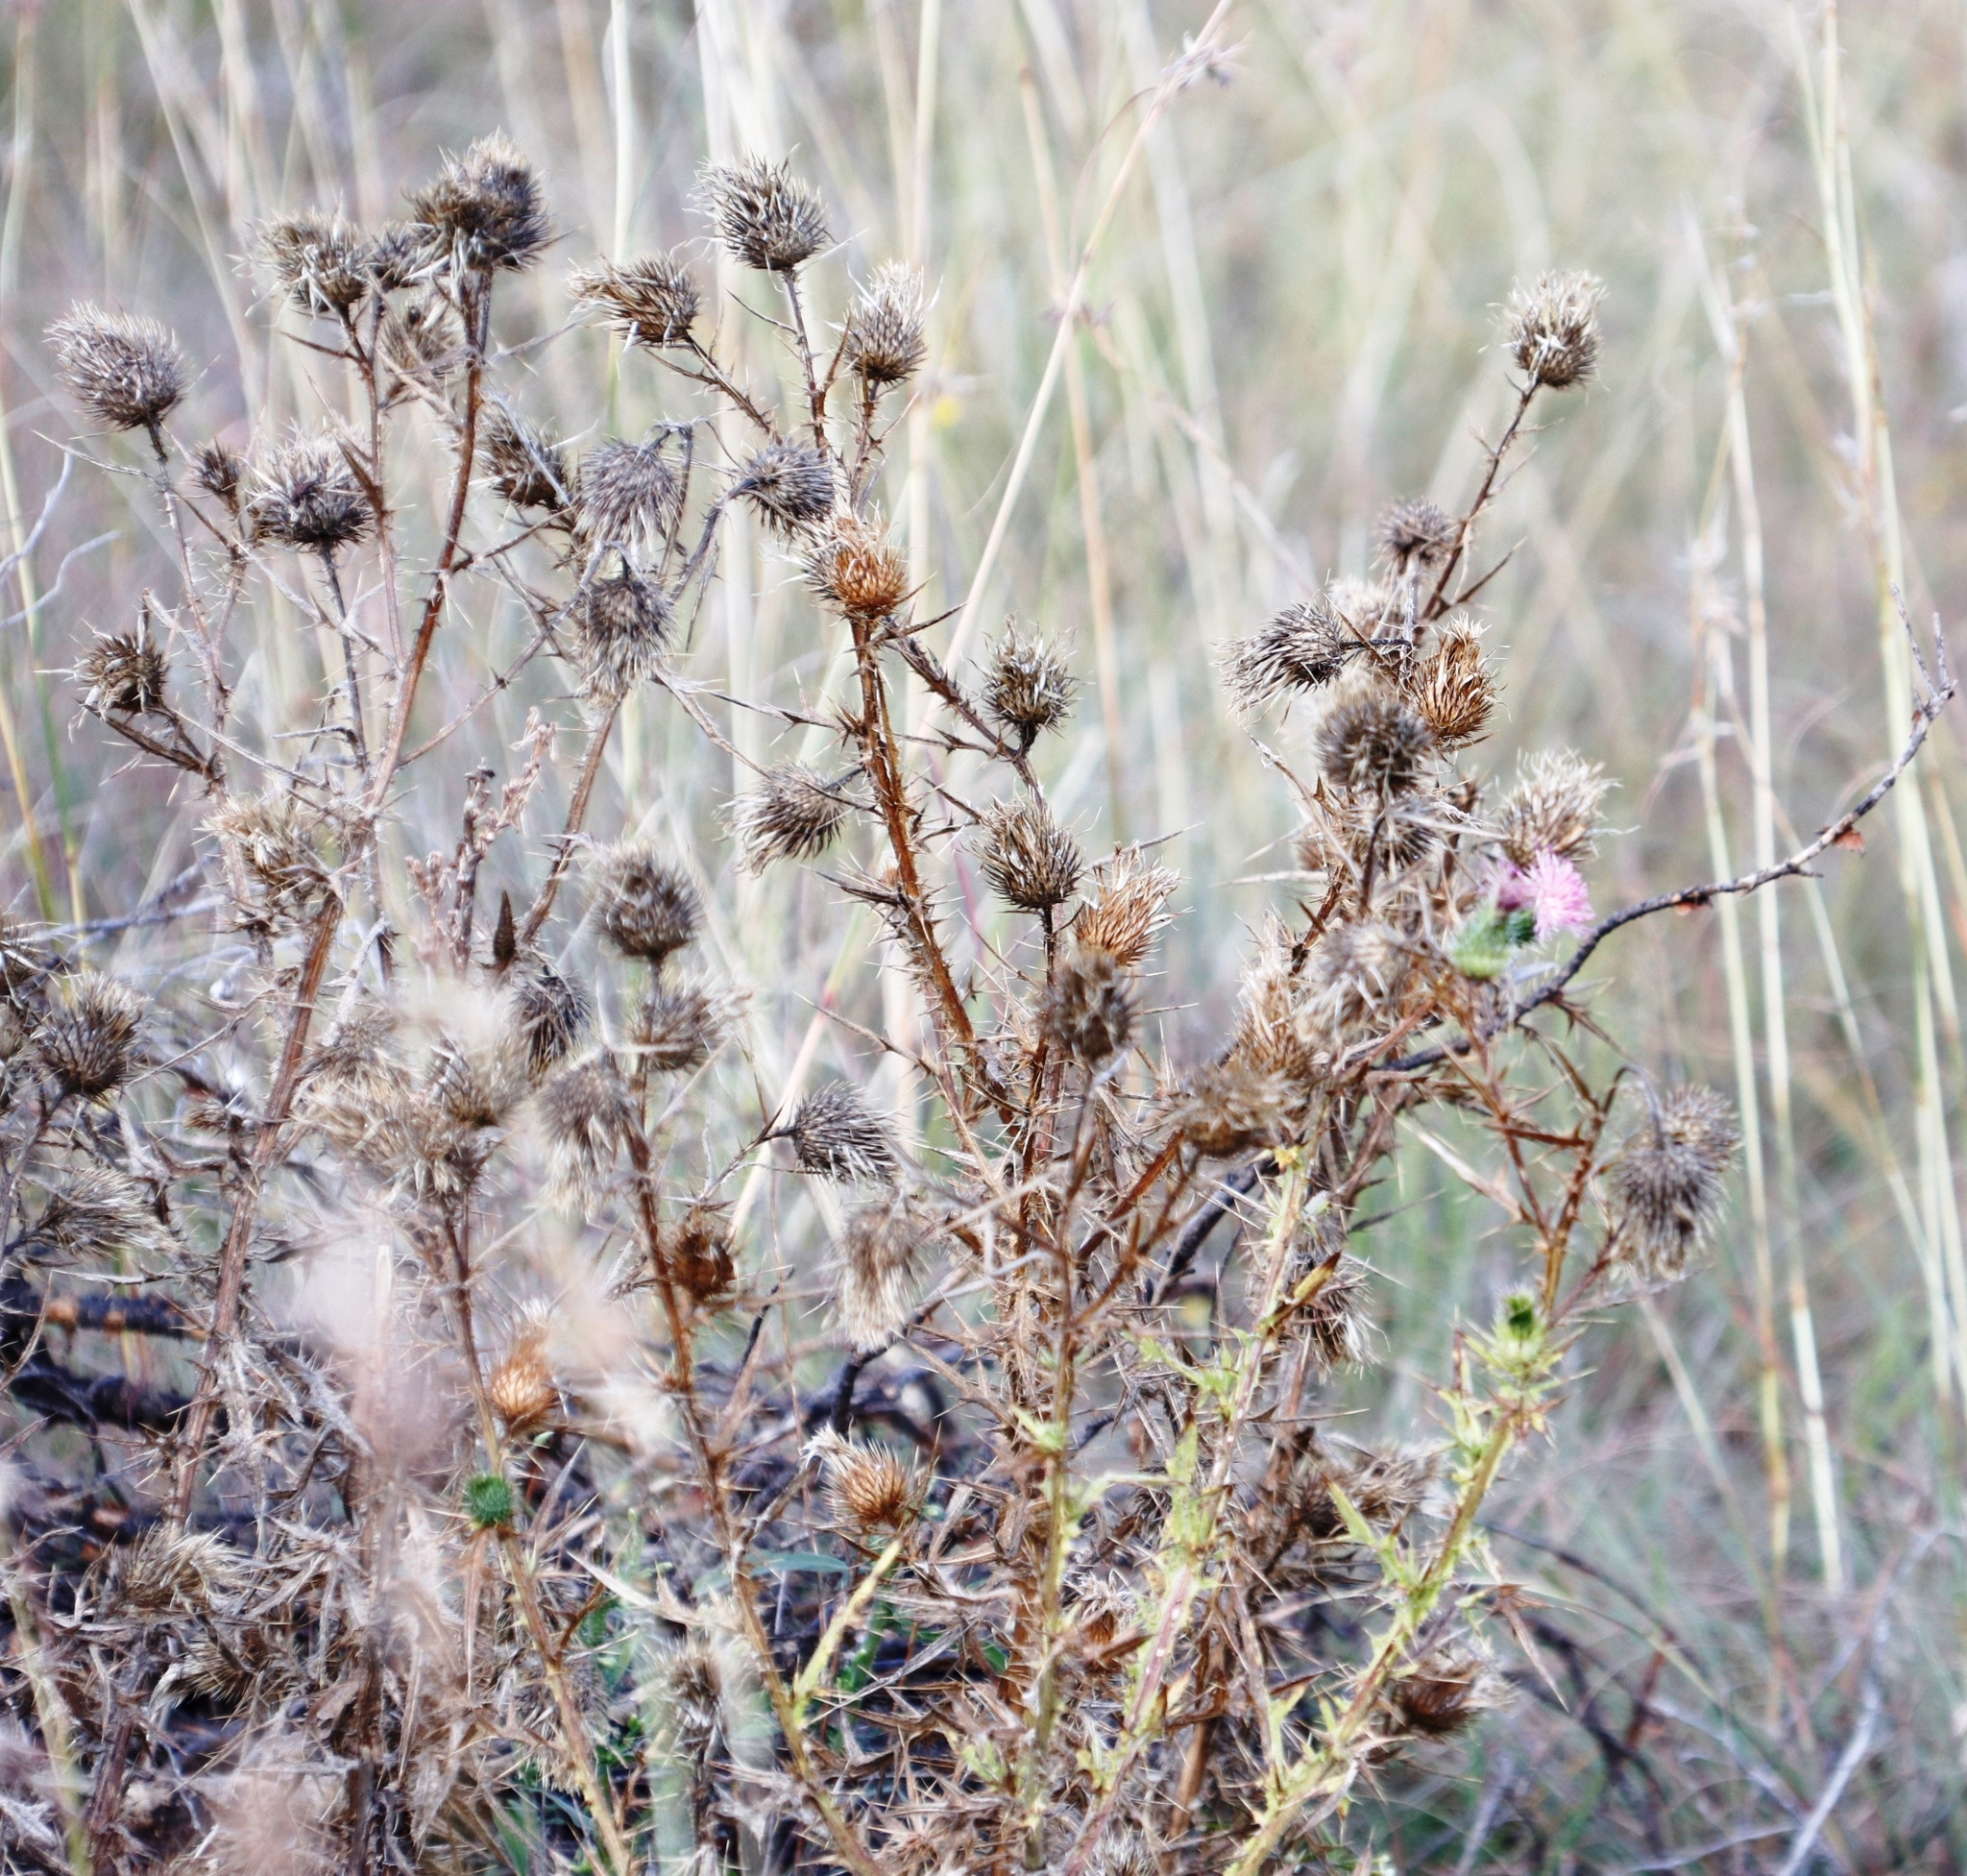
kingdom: Plantae
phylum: Tracheophyta
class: Magnoliopsida
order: Asterales
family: Asteraceae
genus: Cirsium
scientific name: Cirsium vulgare
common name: Bull thistle
